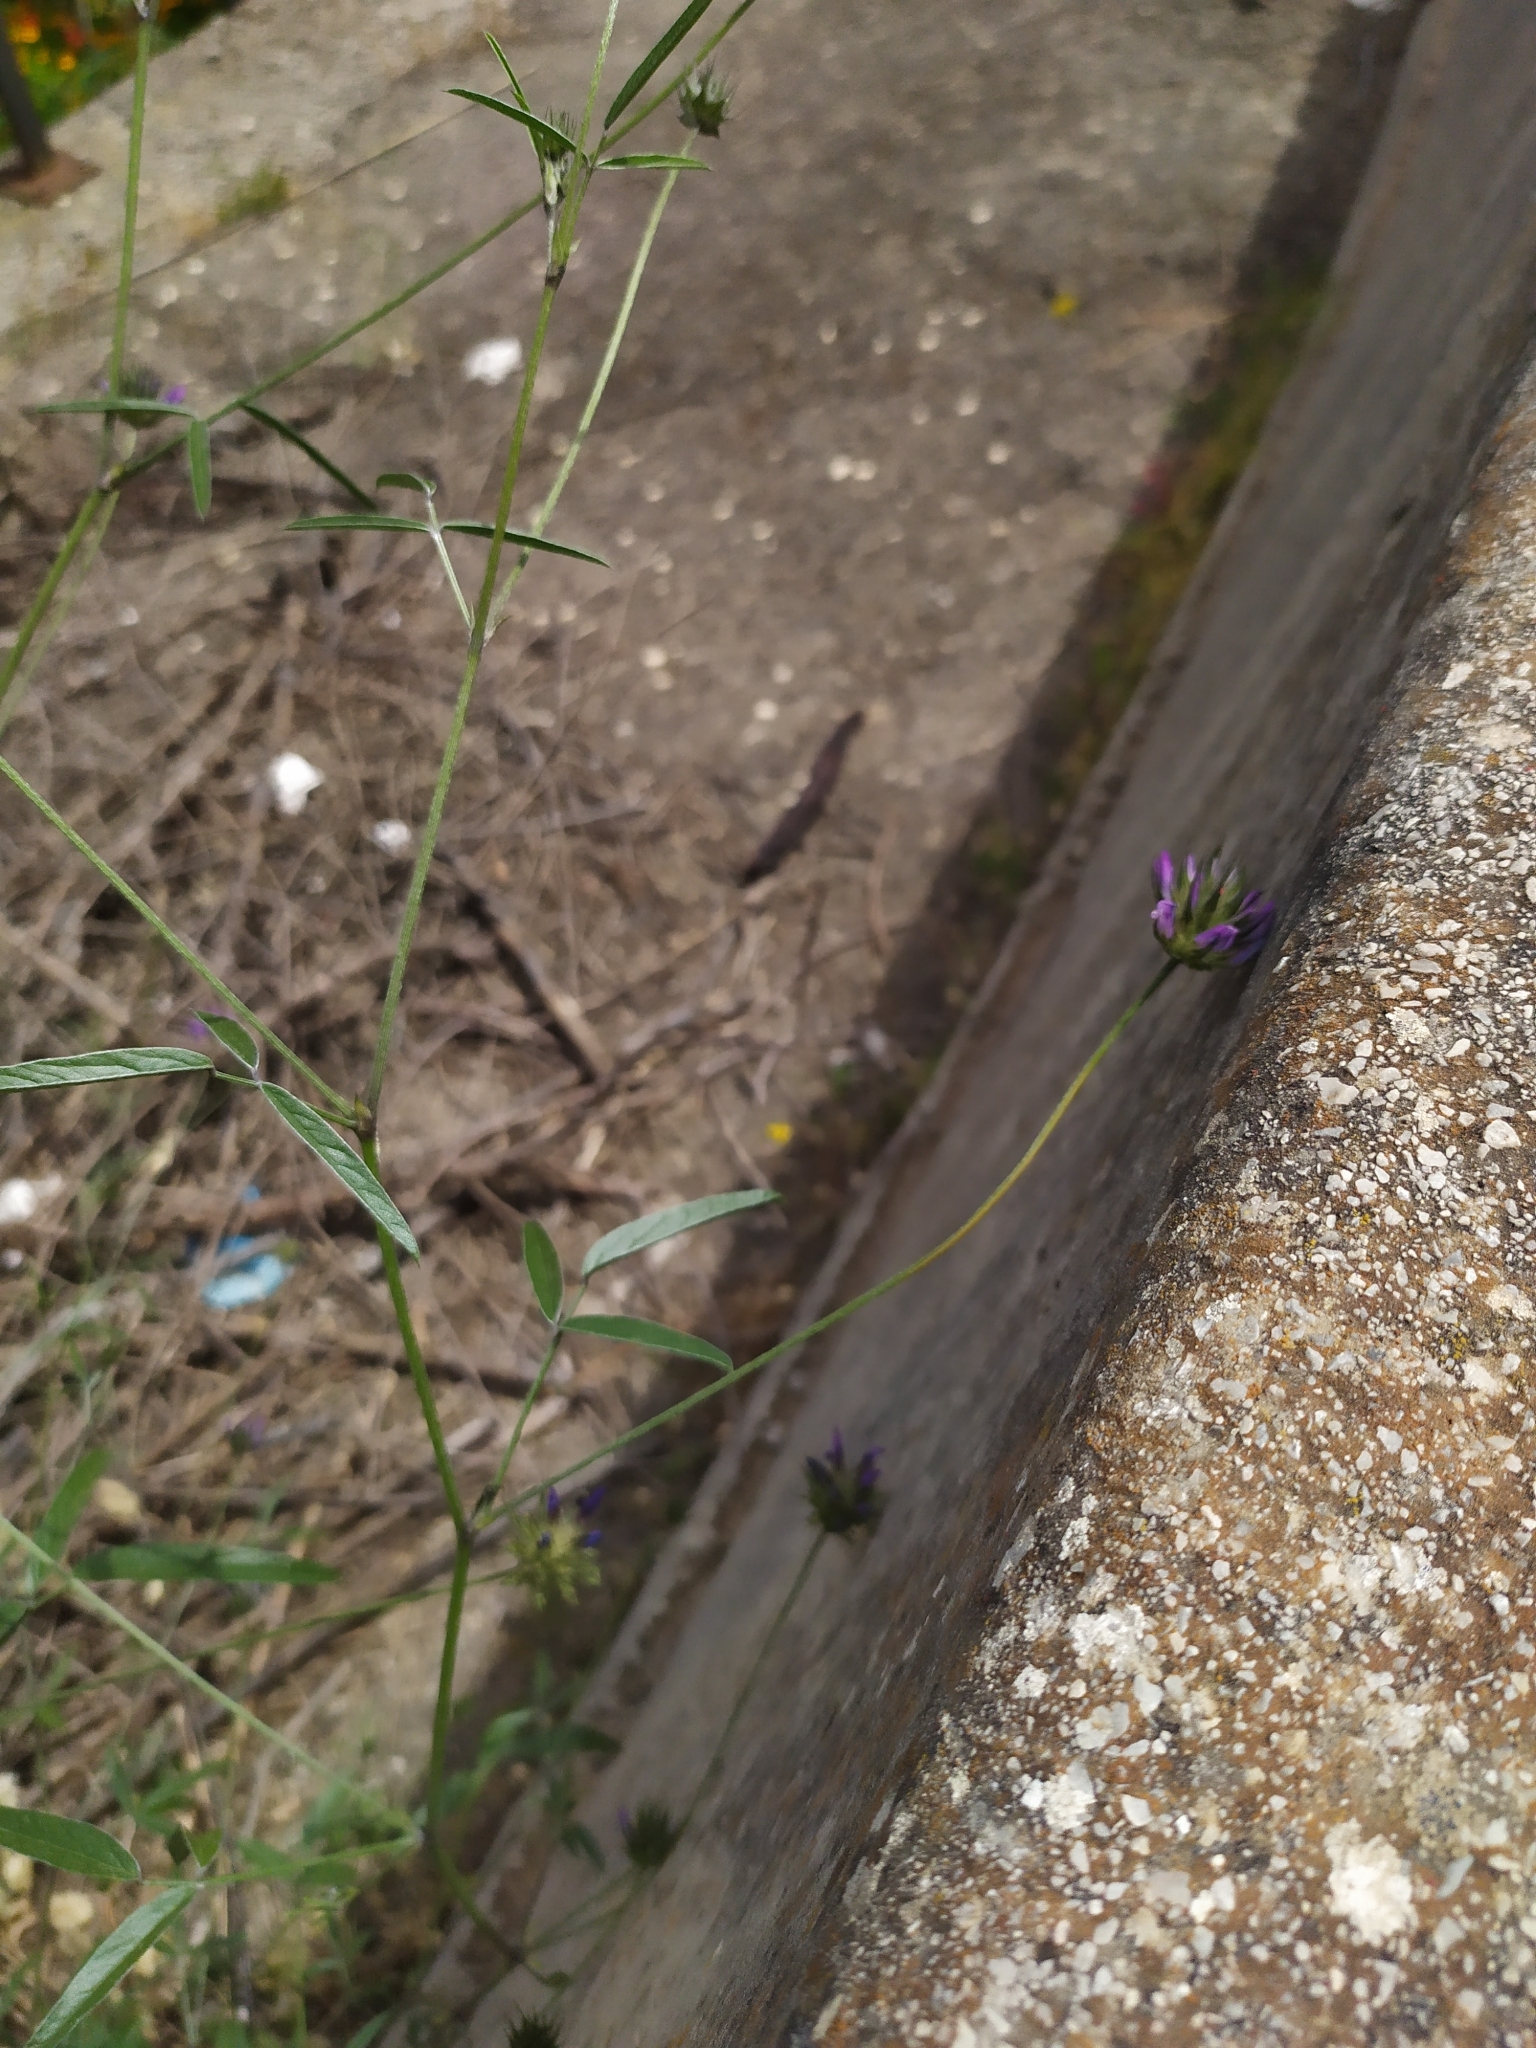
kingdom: Plantae
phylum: Tracheophyta
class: Magnoliopsida
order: Fabales
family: Fabaceae
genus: Bituminaria
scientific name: Bituminaria bituminosa
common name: Arabian pea
